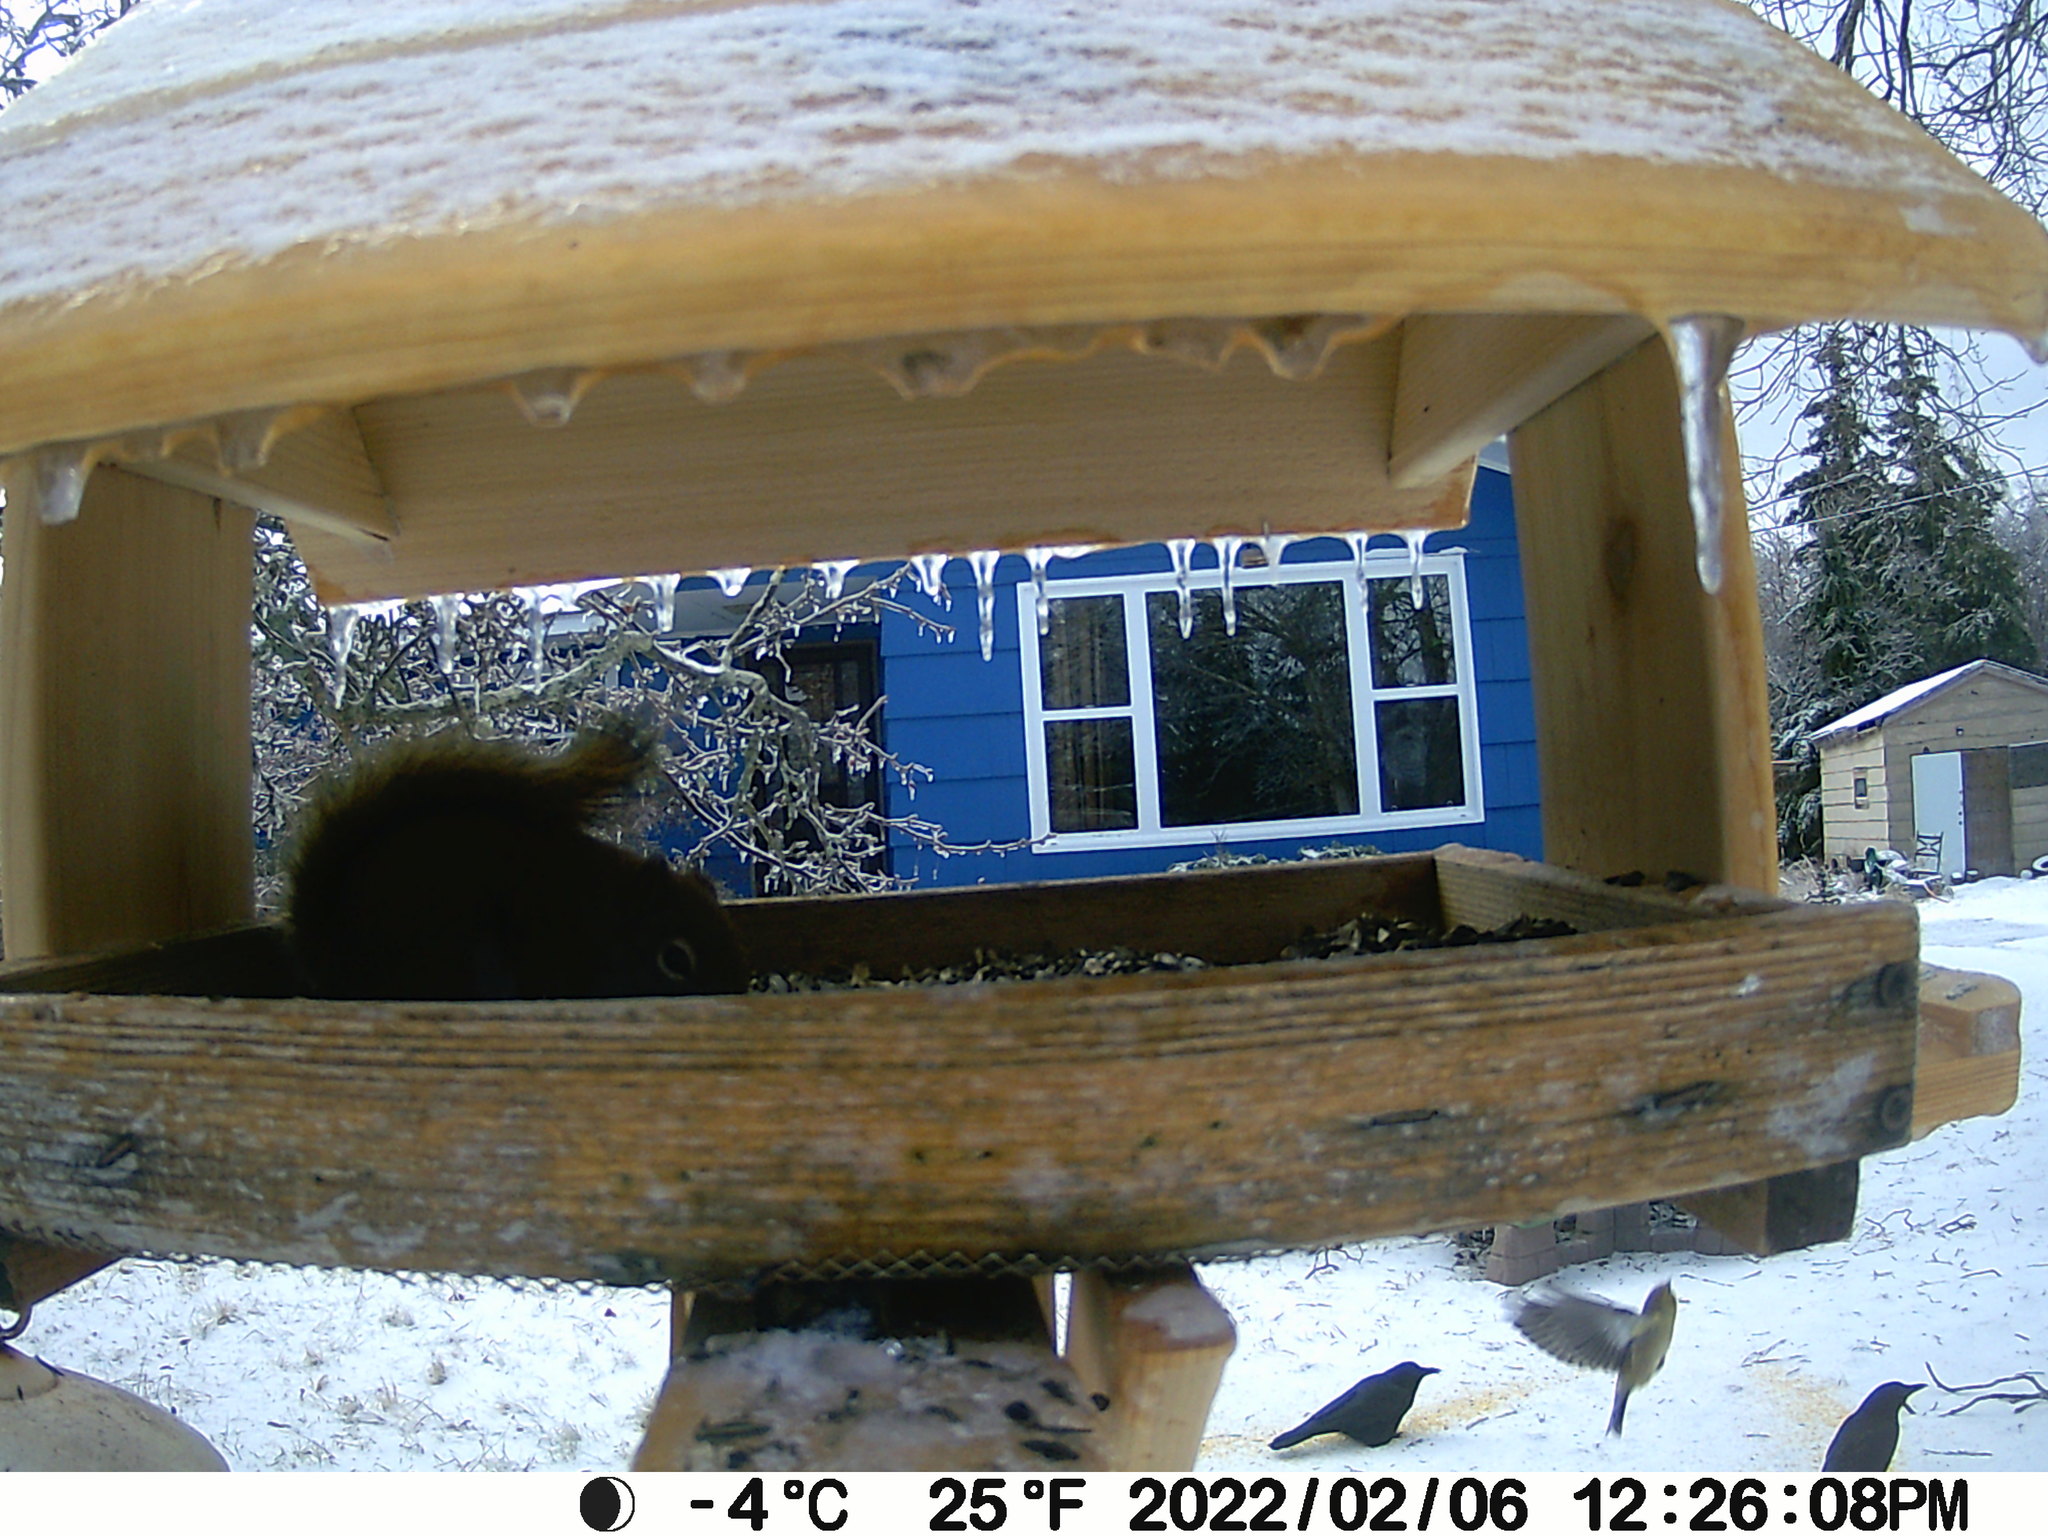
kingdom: Animalia
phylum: Chordata
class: Aves
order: Columbiformes
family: Columbidae
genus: Zenaida
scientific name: Zenaida macroura
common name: Mourning dove
